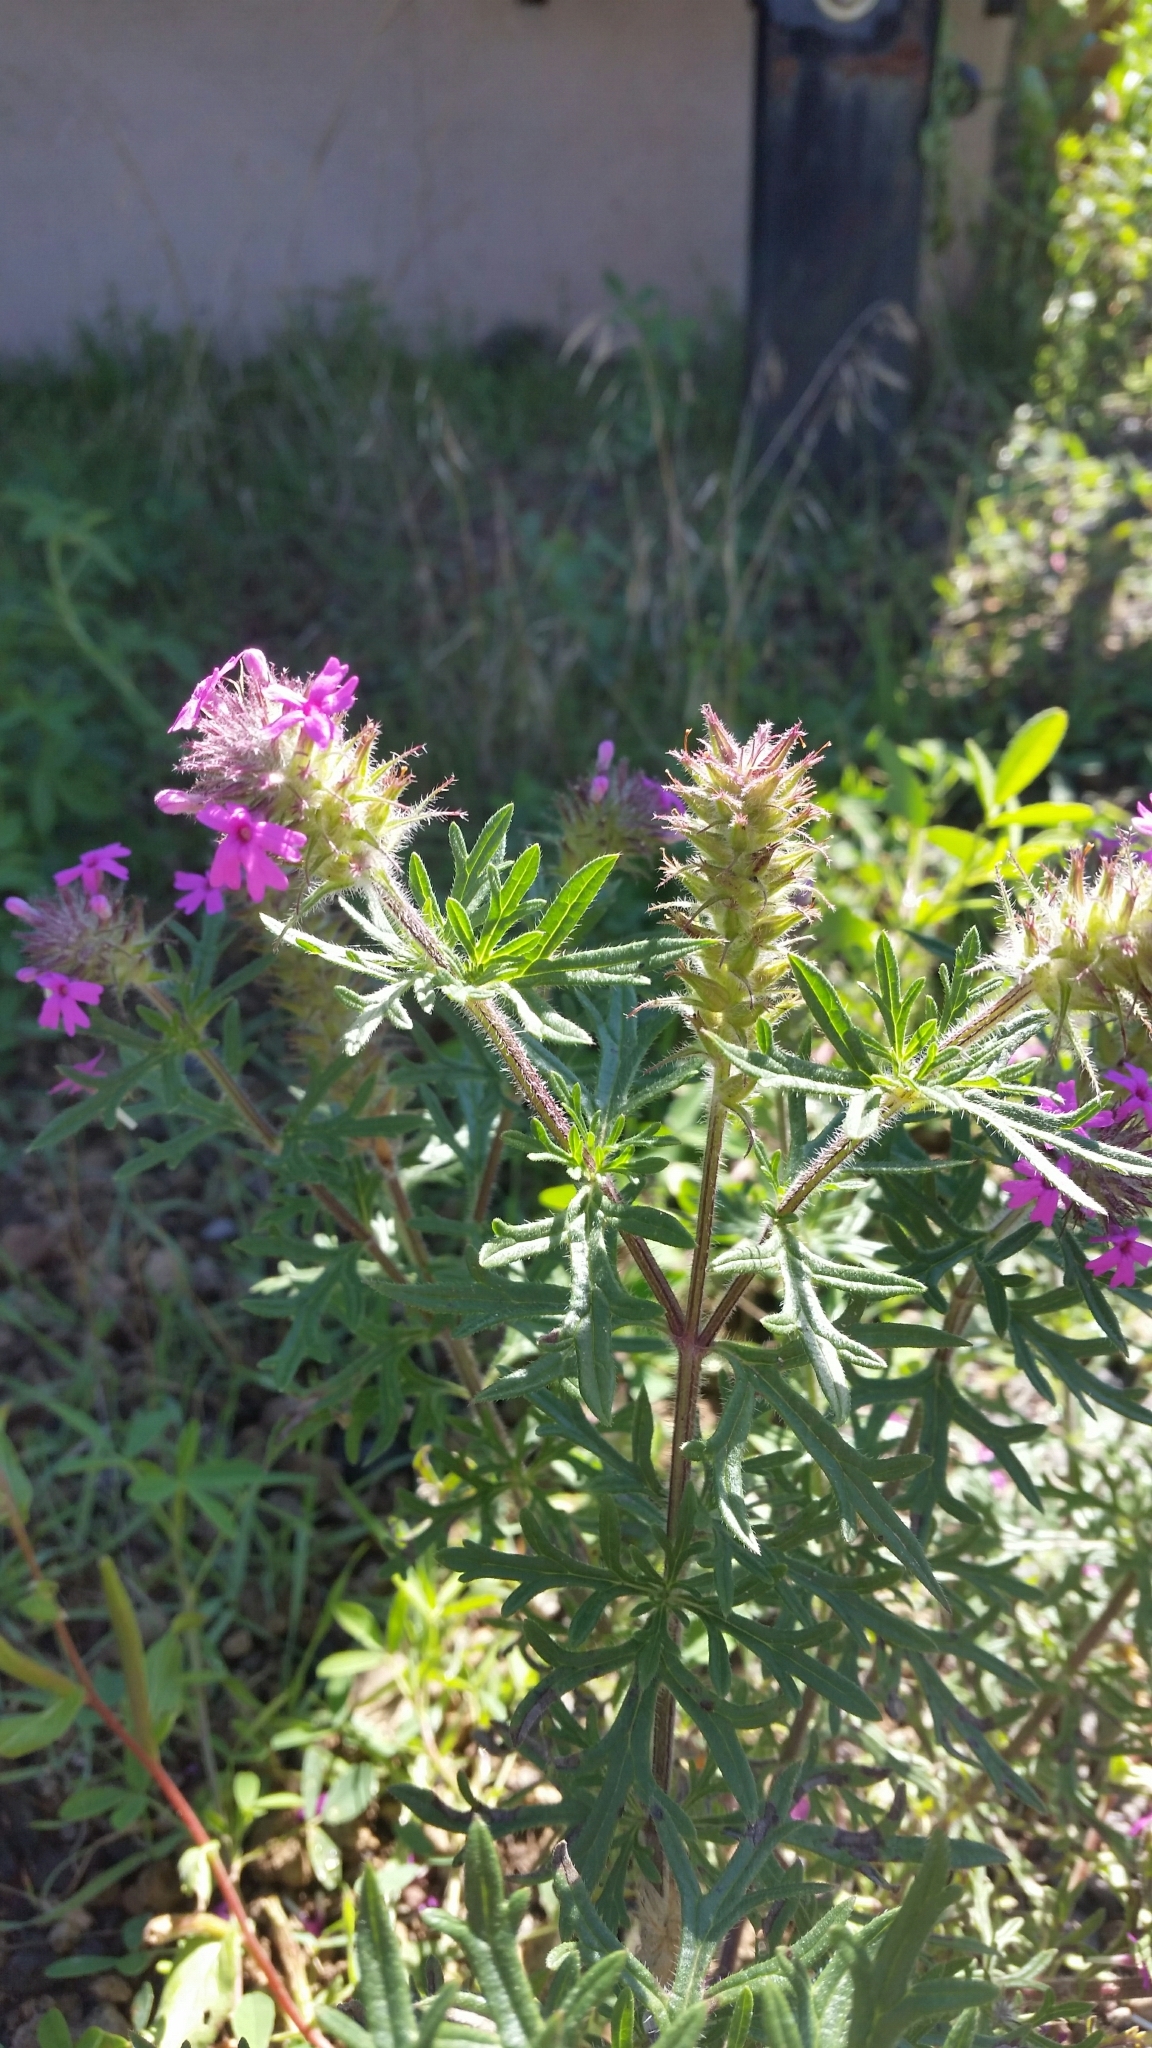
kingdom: Plantae
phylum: Tracheophyta
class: Magnoliopsida
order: Lamiales
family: Verbenaceae
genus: Verbena
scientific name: Verbena chiricahensis
